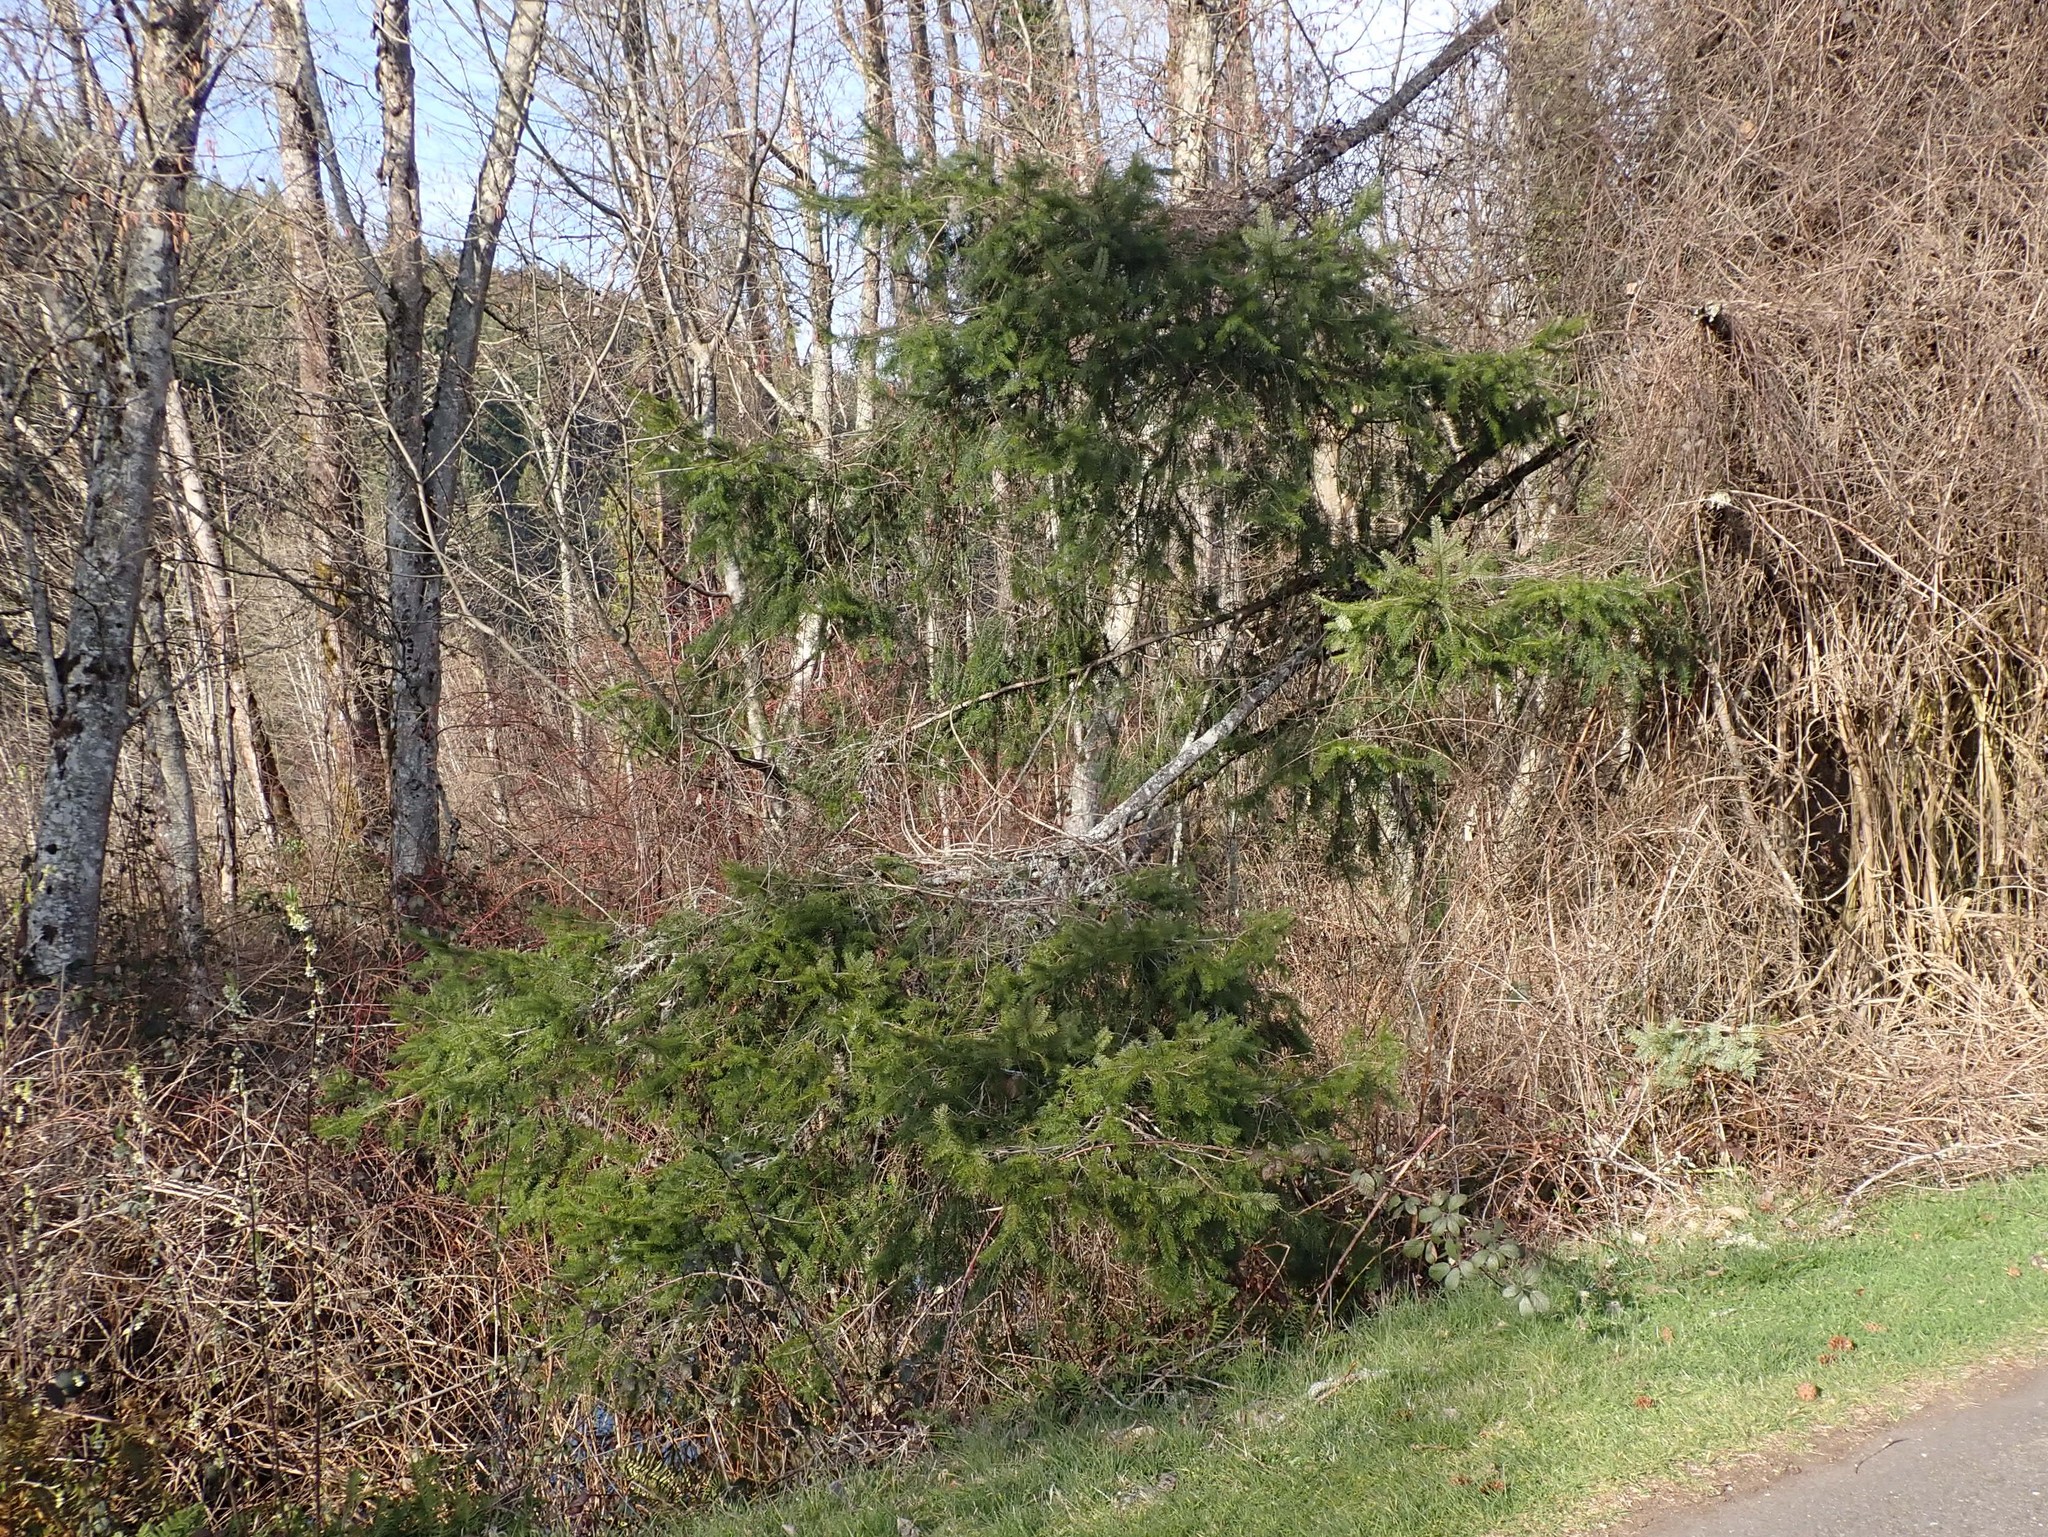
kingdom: Plantae
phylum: Tracheophyta
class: Pinopsida
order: Pinales
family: Pinaceae
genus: Pseudotsuga
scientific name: Pseudotsuga menziesii
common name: Douglas fir
